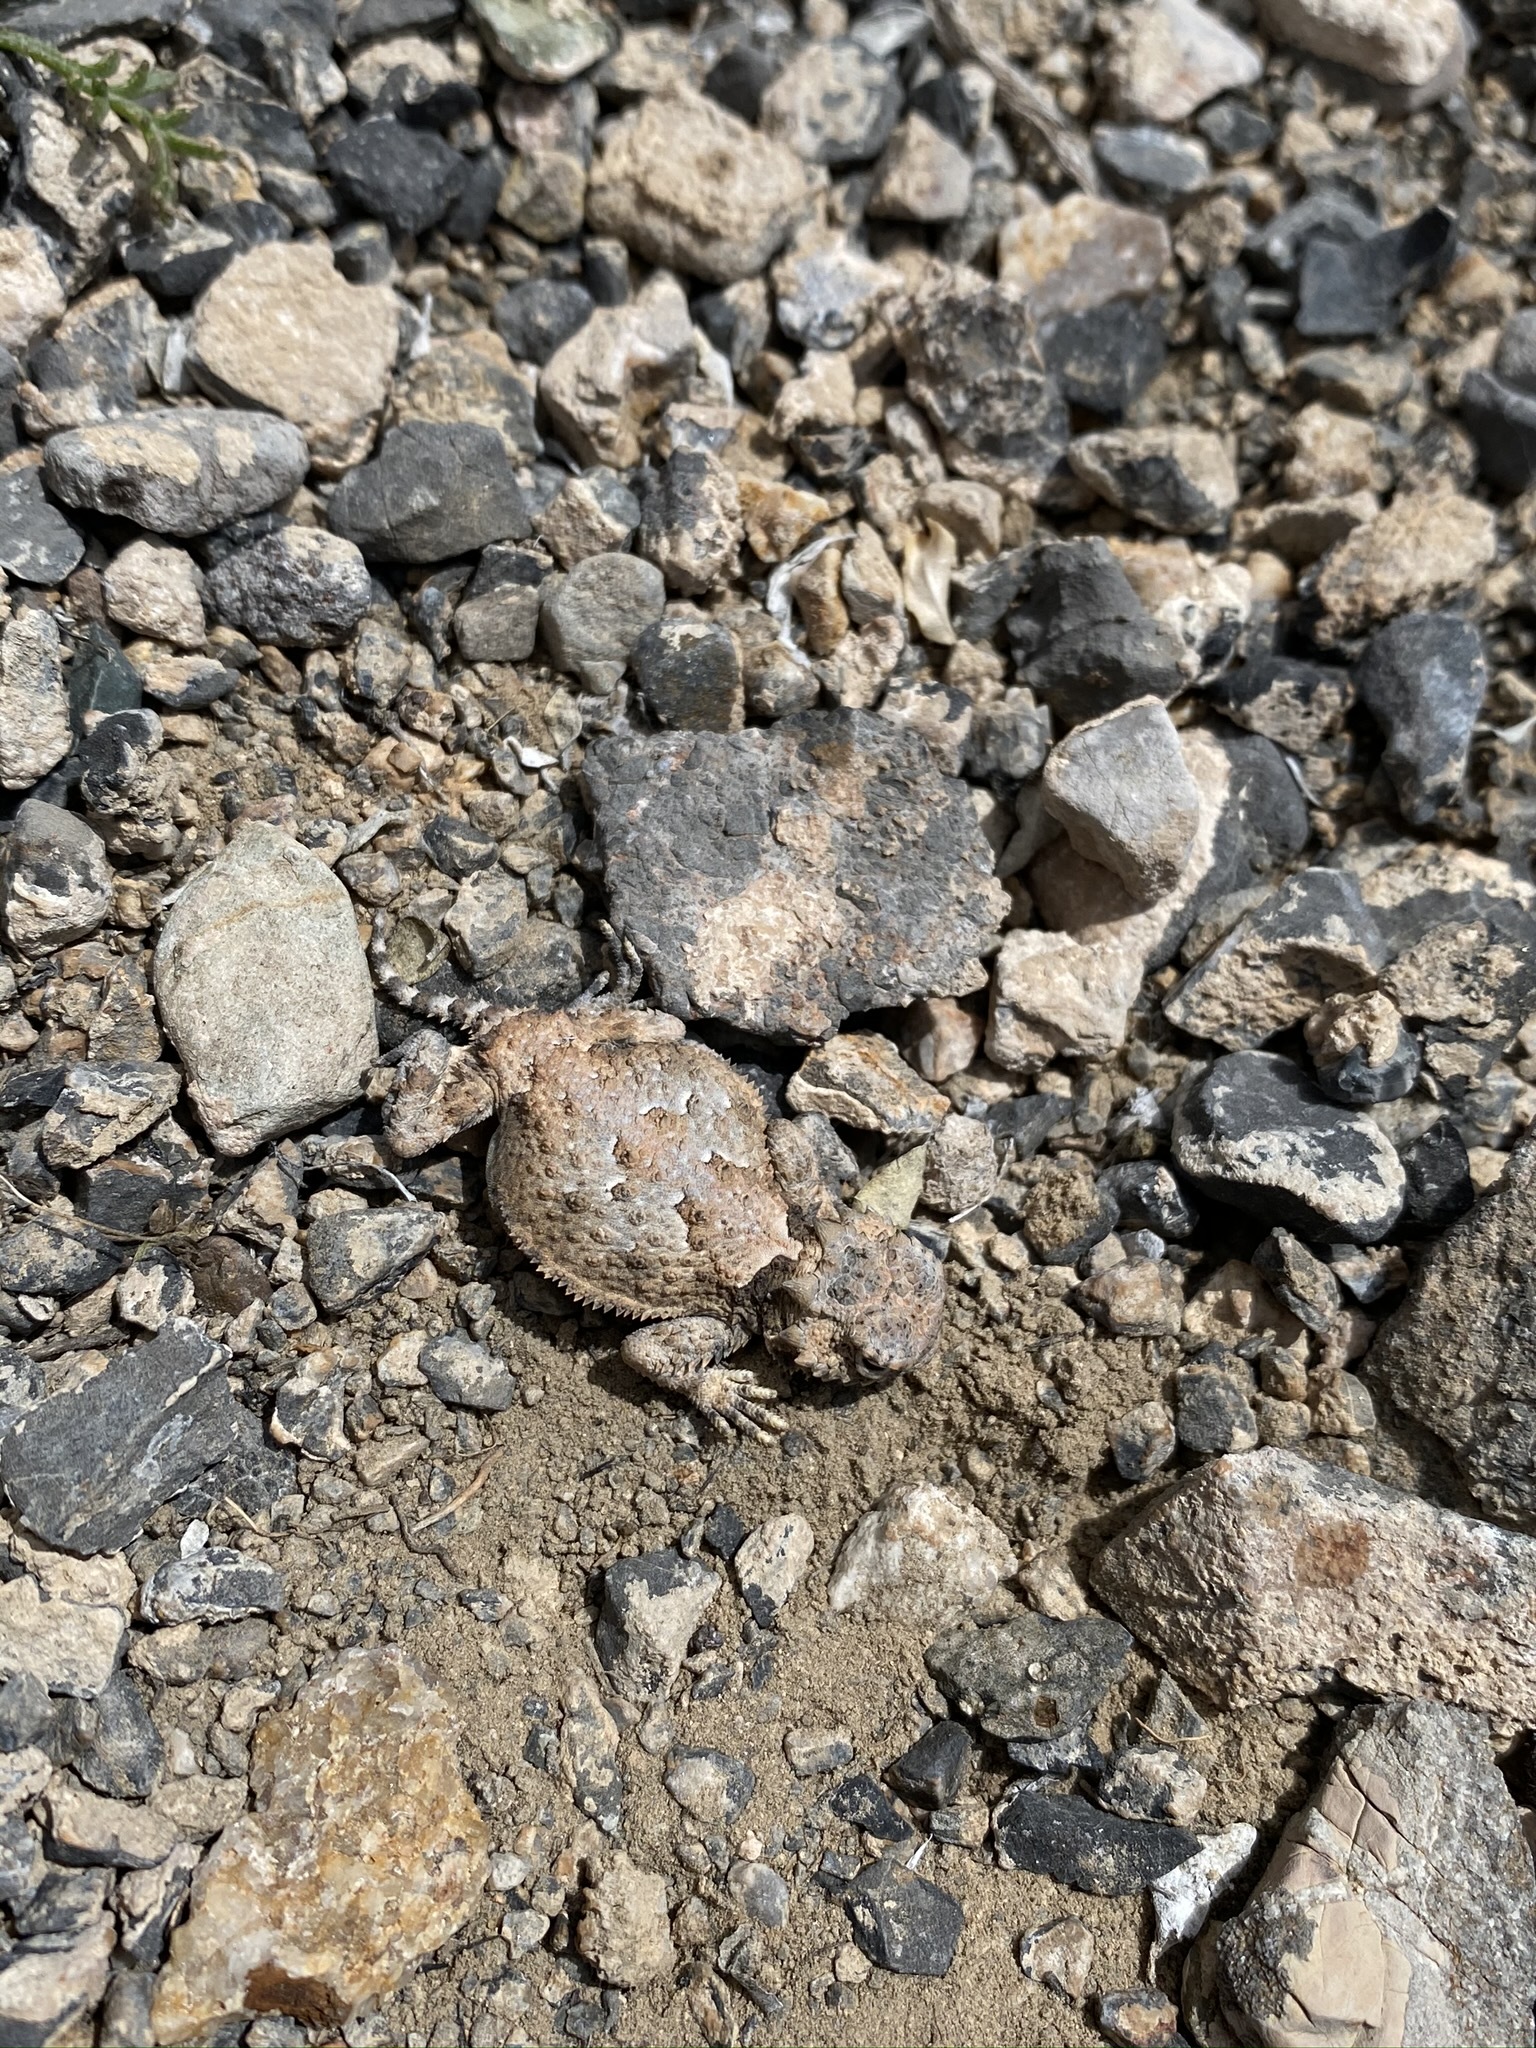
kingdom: Animalia
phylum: Chordata
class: Squamata
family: Phrynosomatidae
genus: Phrynosoma
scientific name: Phrynosoma platyrhinos
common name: Desert horned lizard
